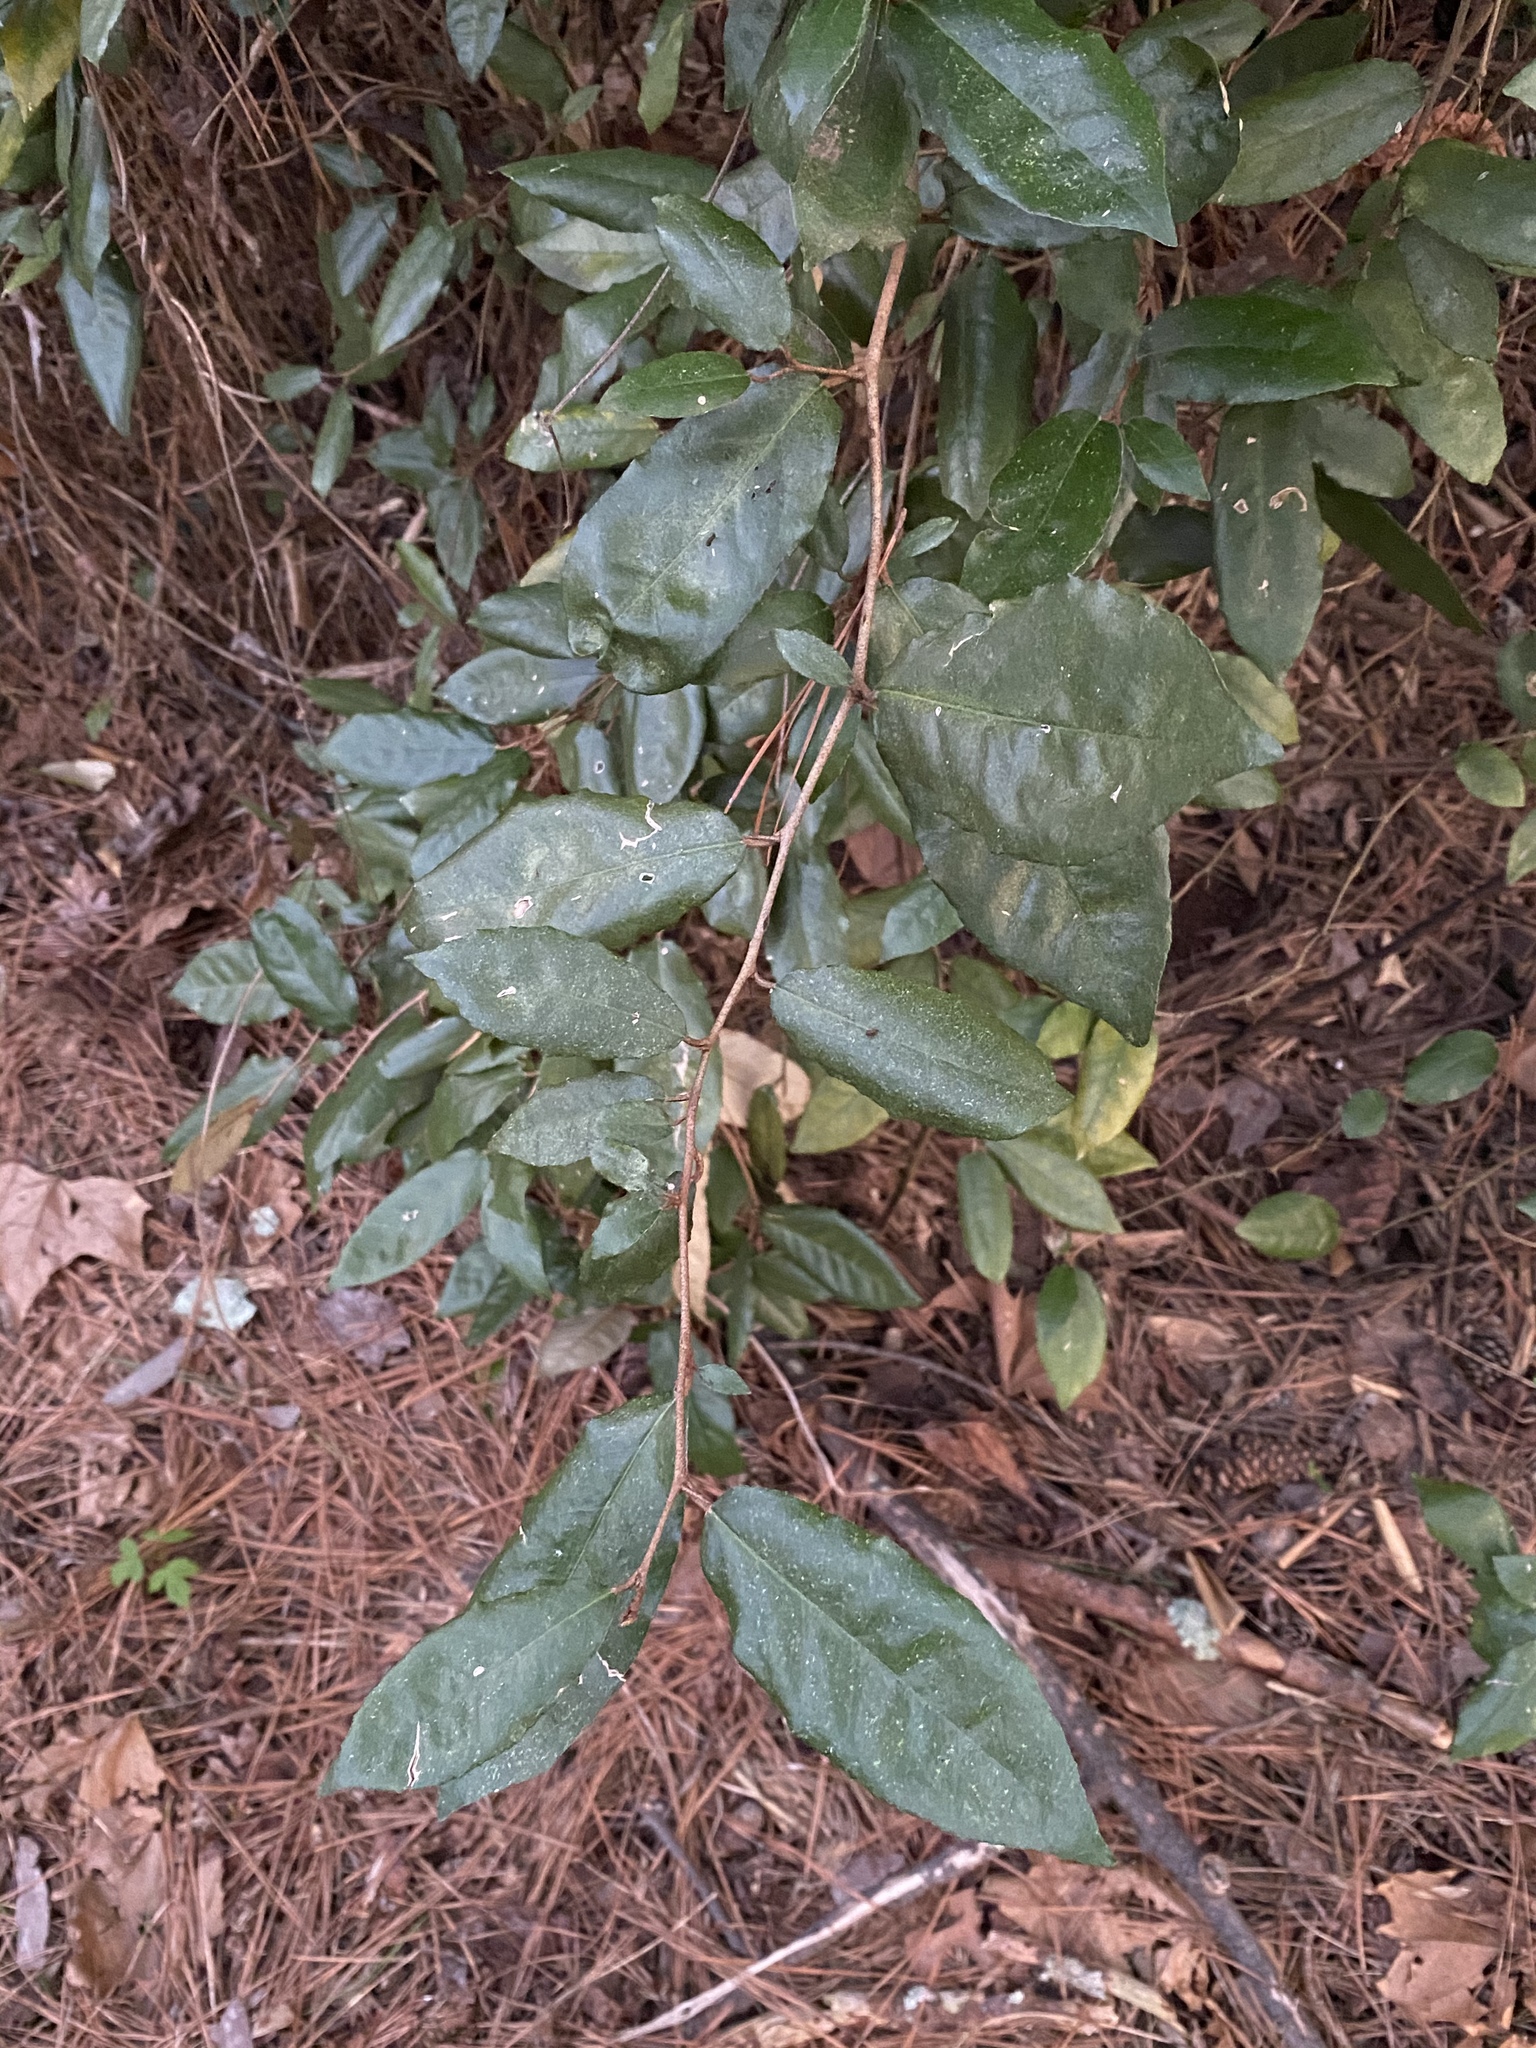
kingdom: Plantae
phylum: Tracheophyta
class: Magnoliopsida
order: Rosales
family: Elaeagnaceae
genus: Elaeagnus
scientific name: Elaeagnus pungens
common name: Spiny oleaster
